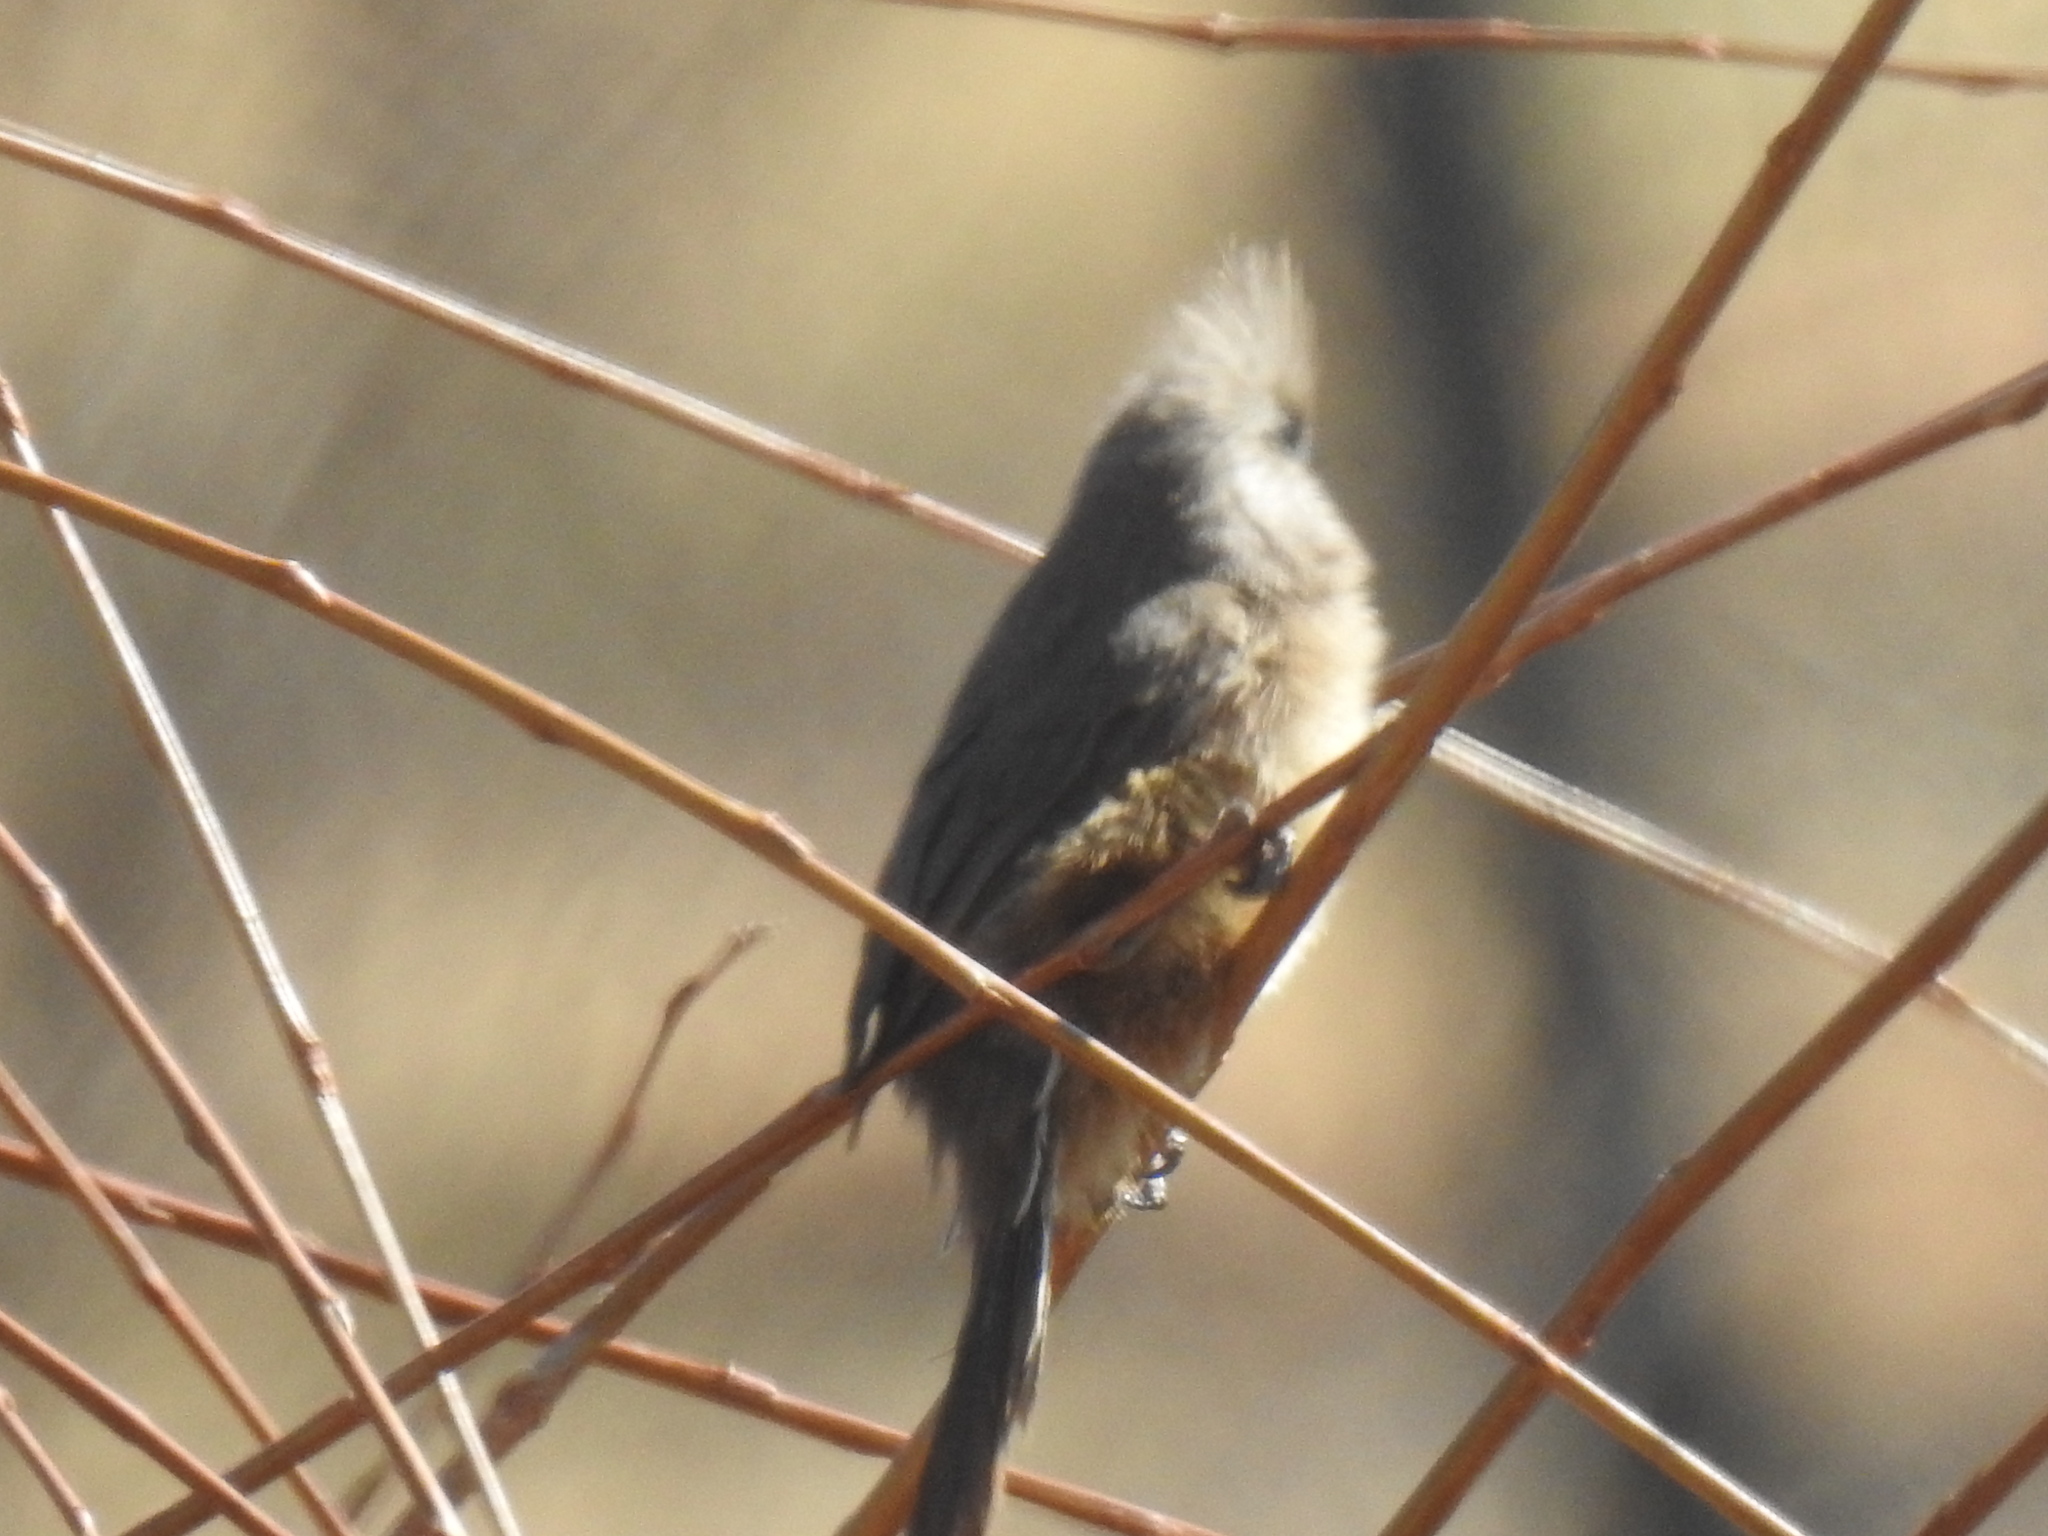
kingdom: Animalia
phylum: Chordata
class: Aves
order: Coliiformes
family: Coliidae
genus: Colius
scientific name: Colius striatus
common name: Speckled mousebird
